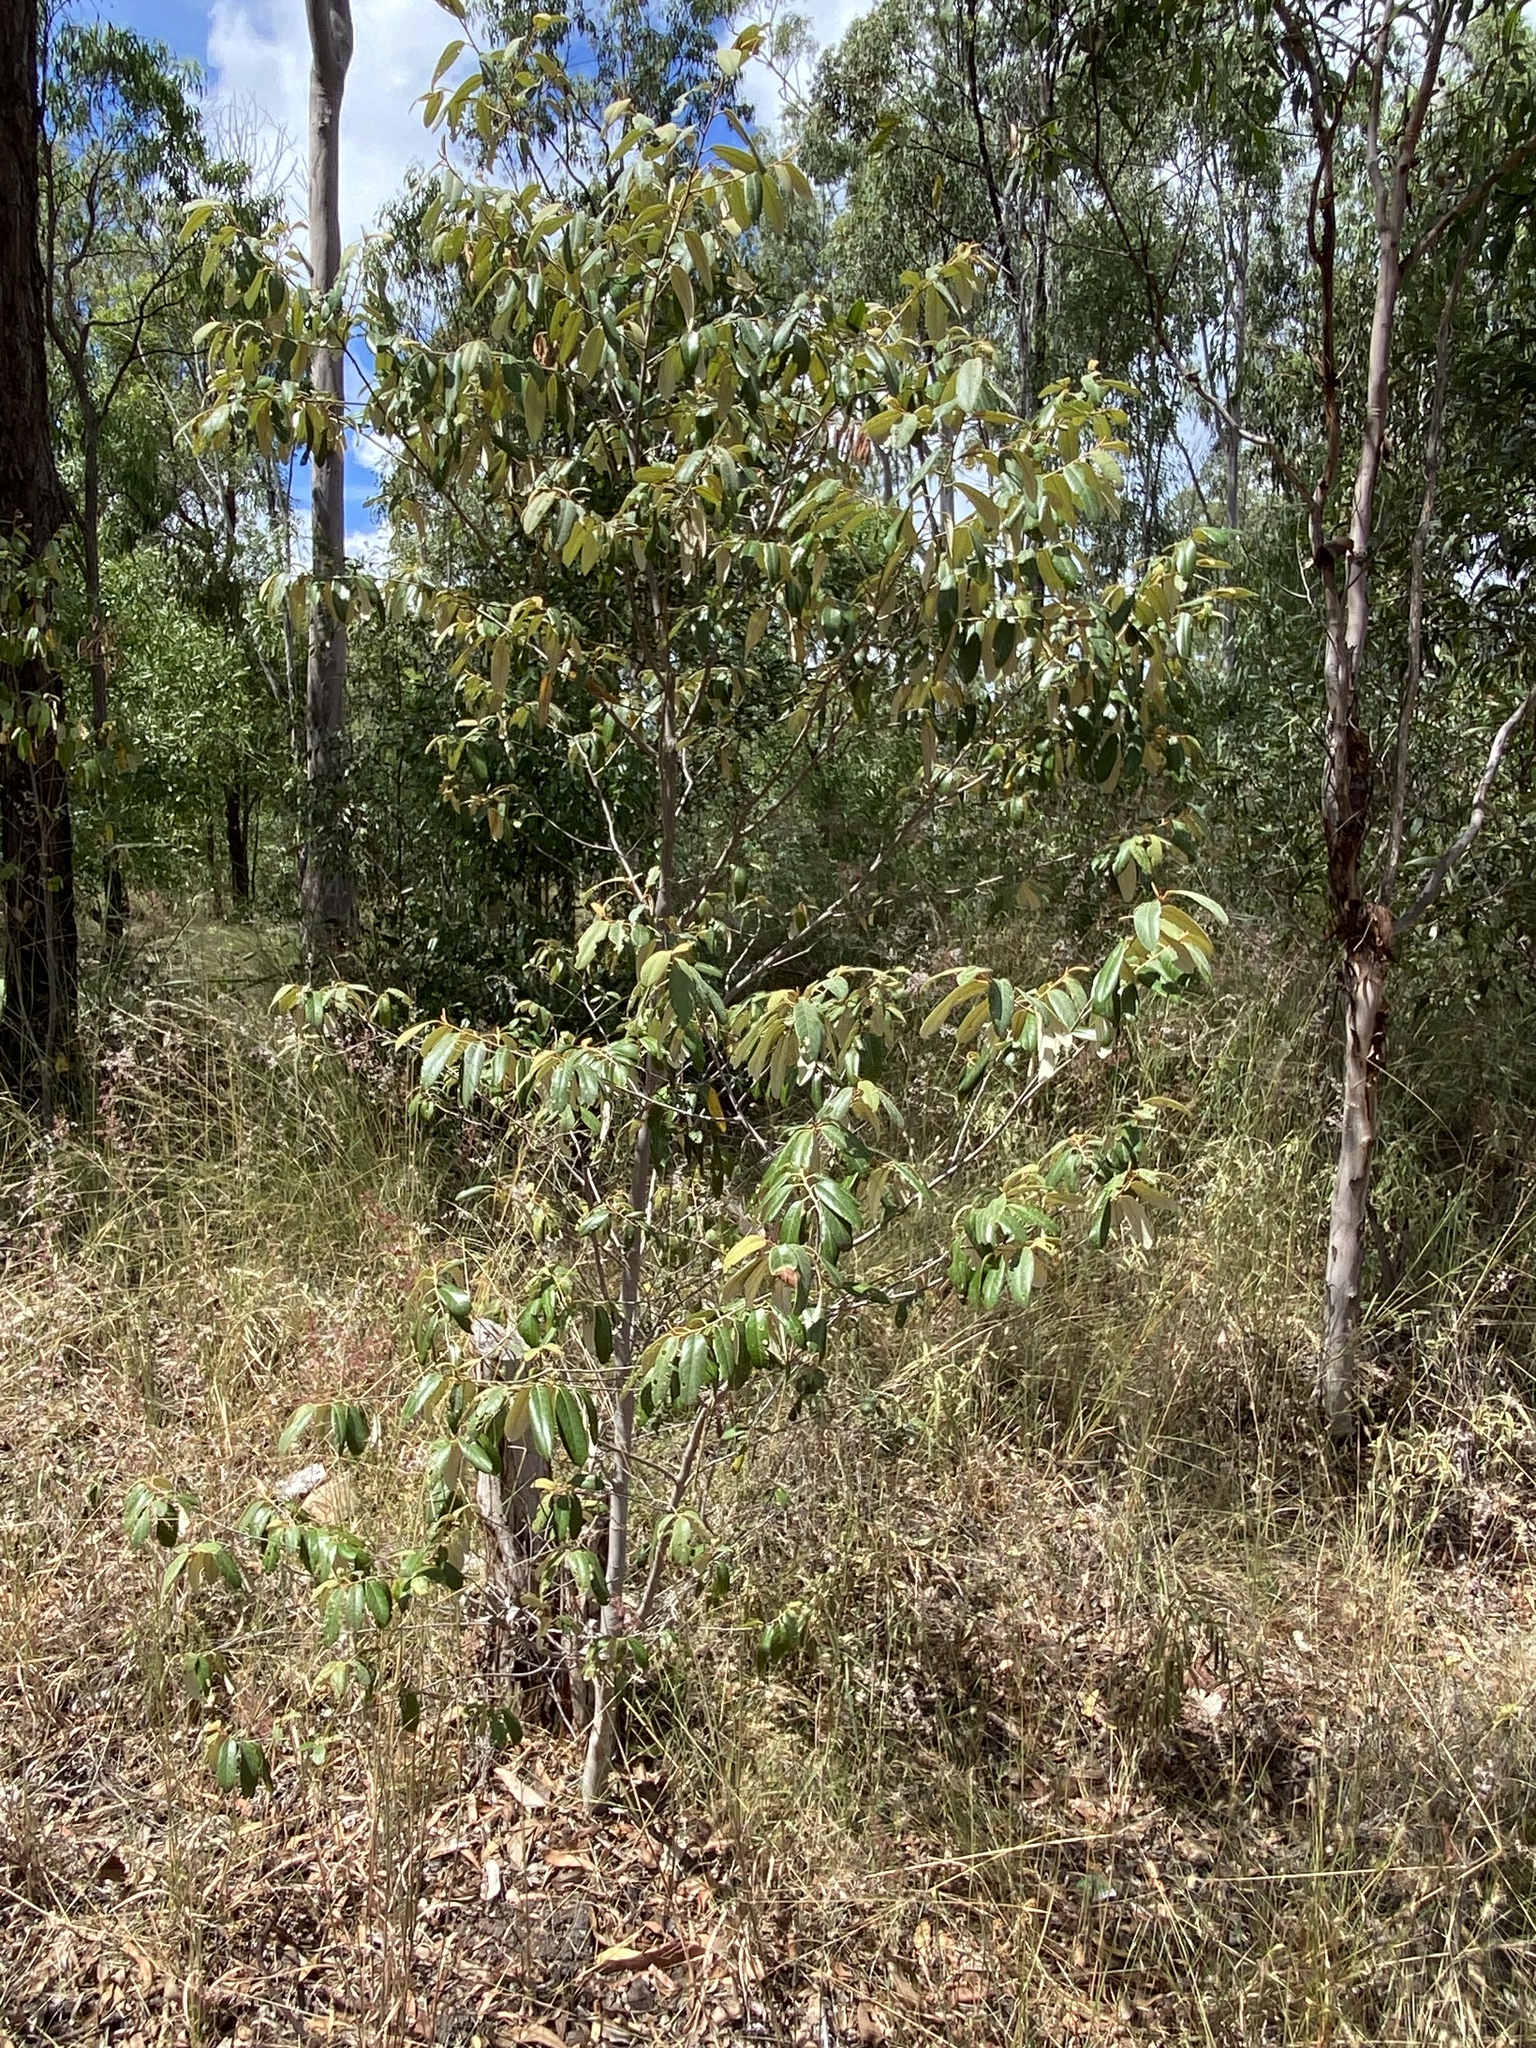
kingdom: Plantae
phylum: Tracheophyta
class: Magnoliopsida
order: Rosales
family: Rhamnaceae
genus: Alphitonia
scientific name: Alphitonia excelsa
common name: Red ash
